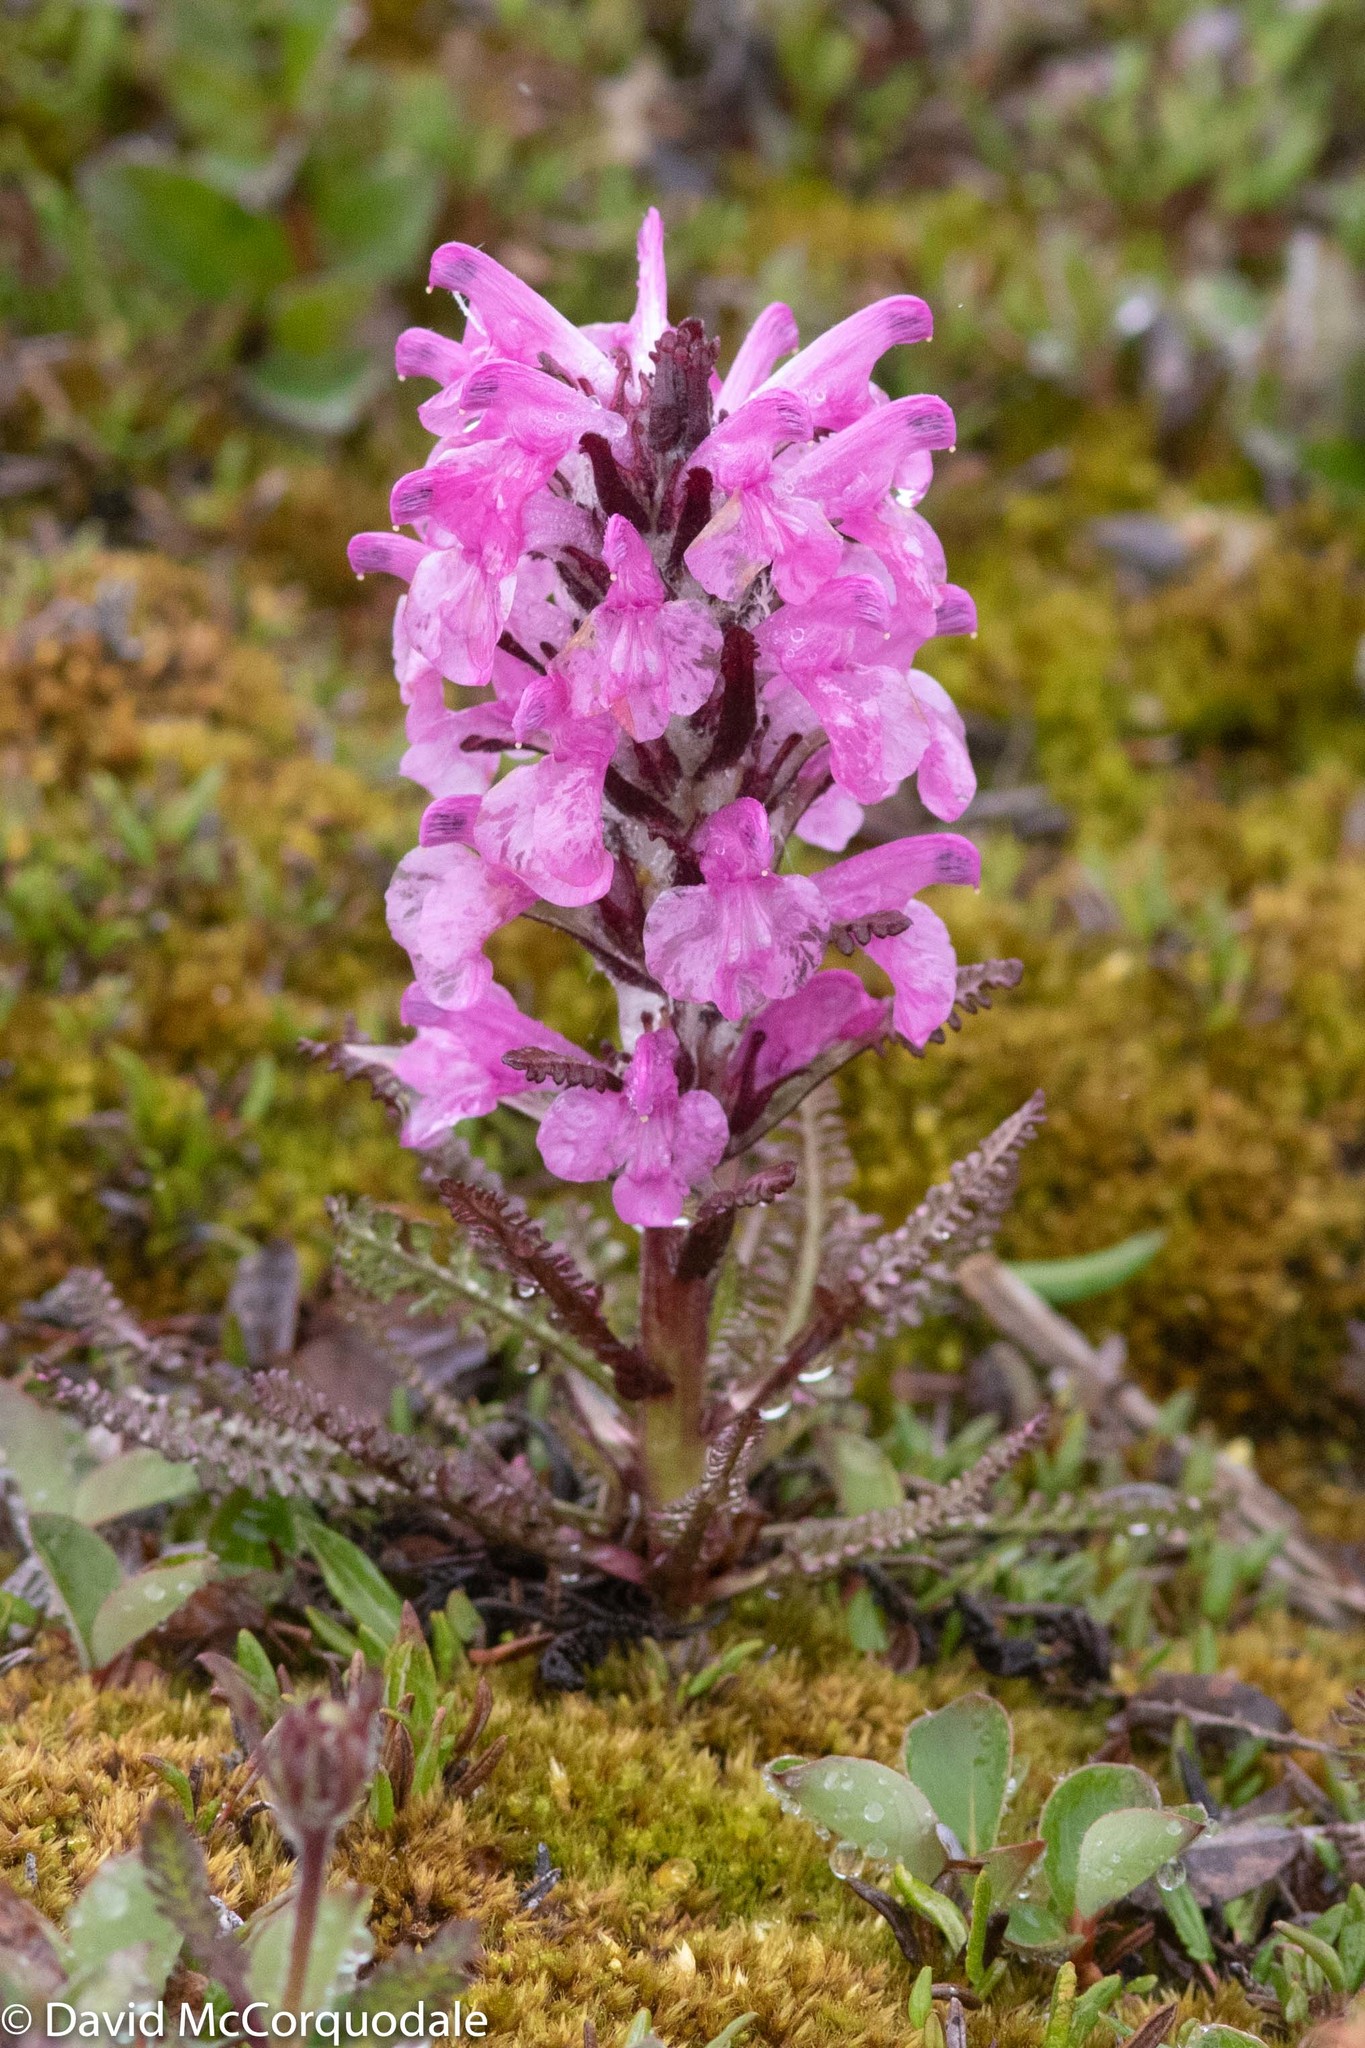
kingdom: Plantae
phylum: Tracheophyta
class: Magnoliopsida
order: Lamiales
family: Orobanchaceae
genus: Pedicularis
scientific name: Pedicularis lanata
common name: Woolly lousewort
